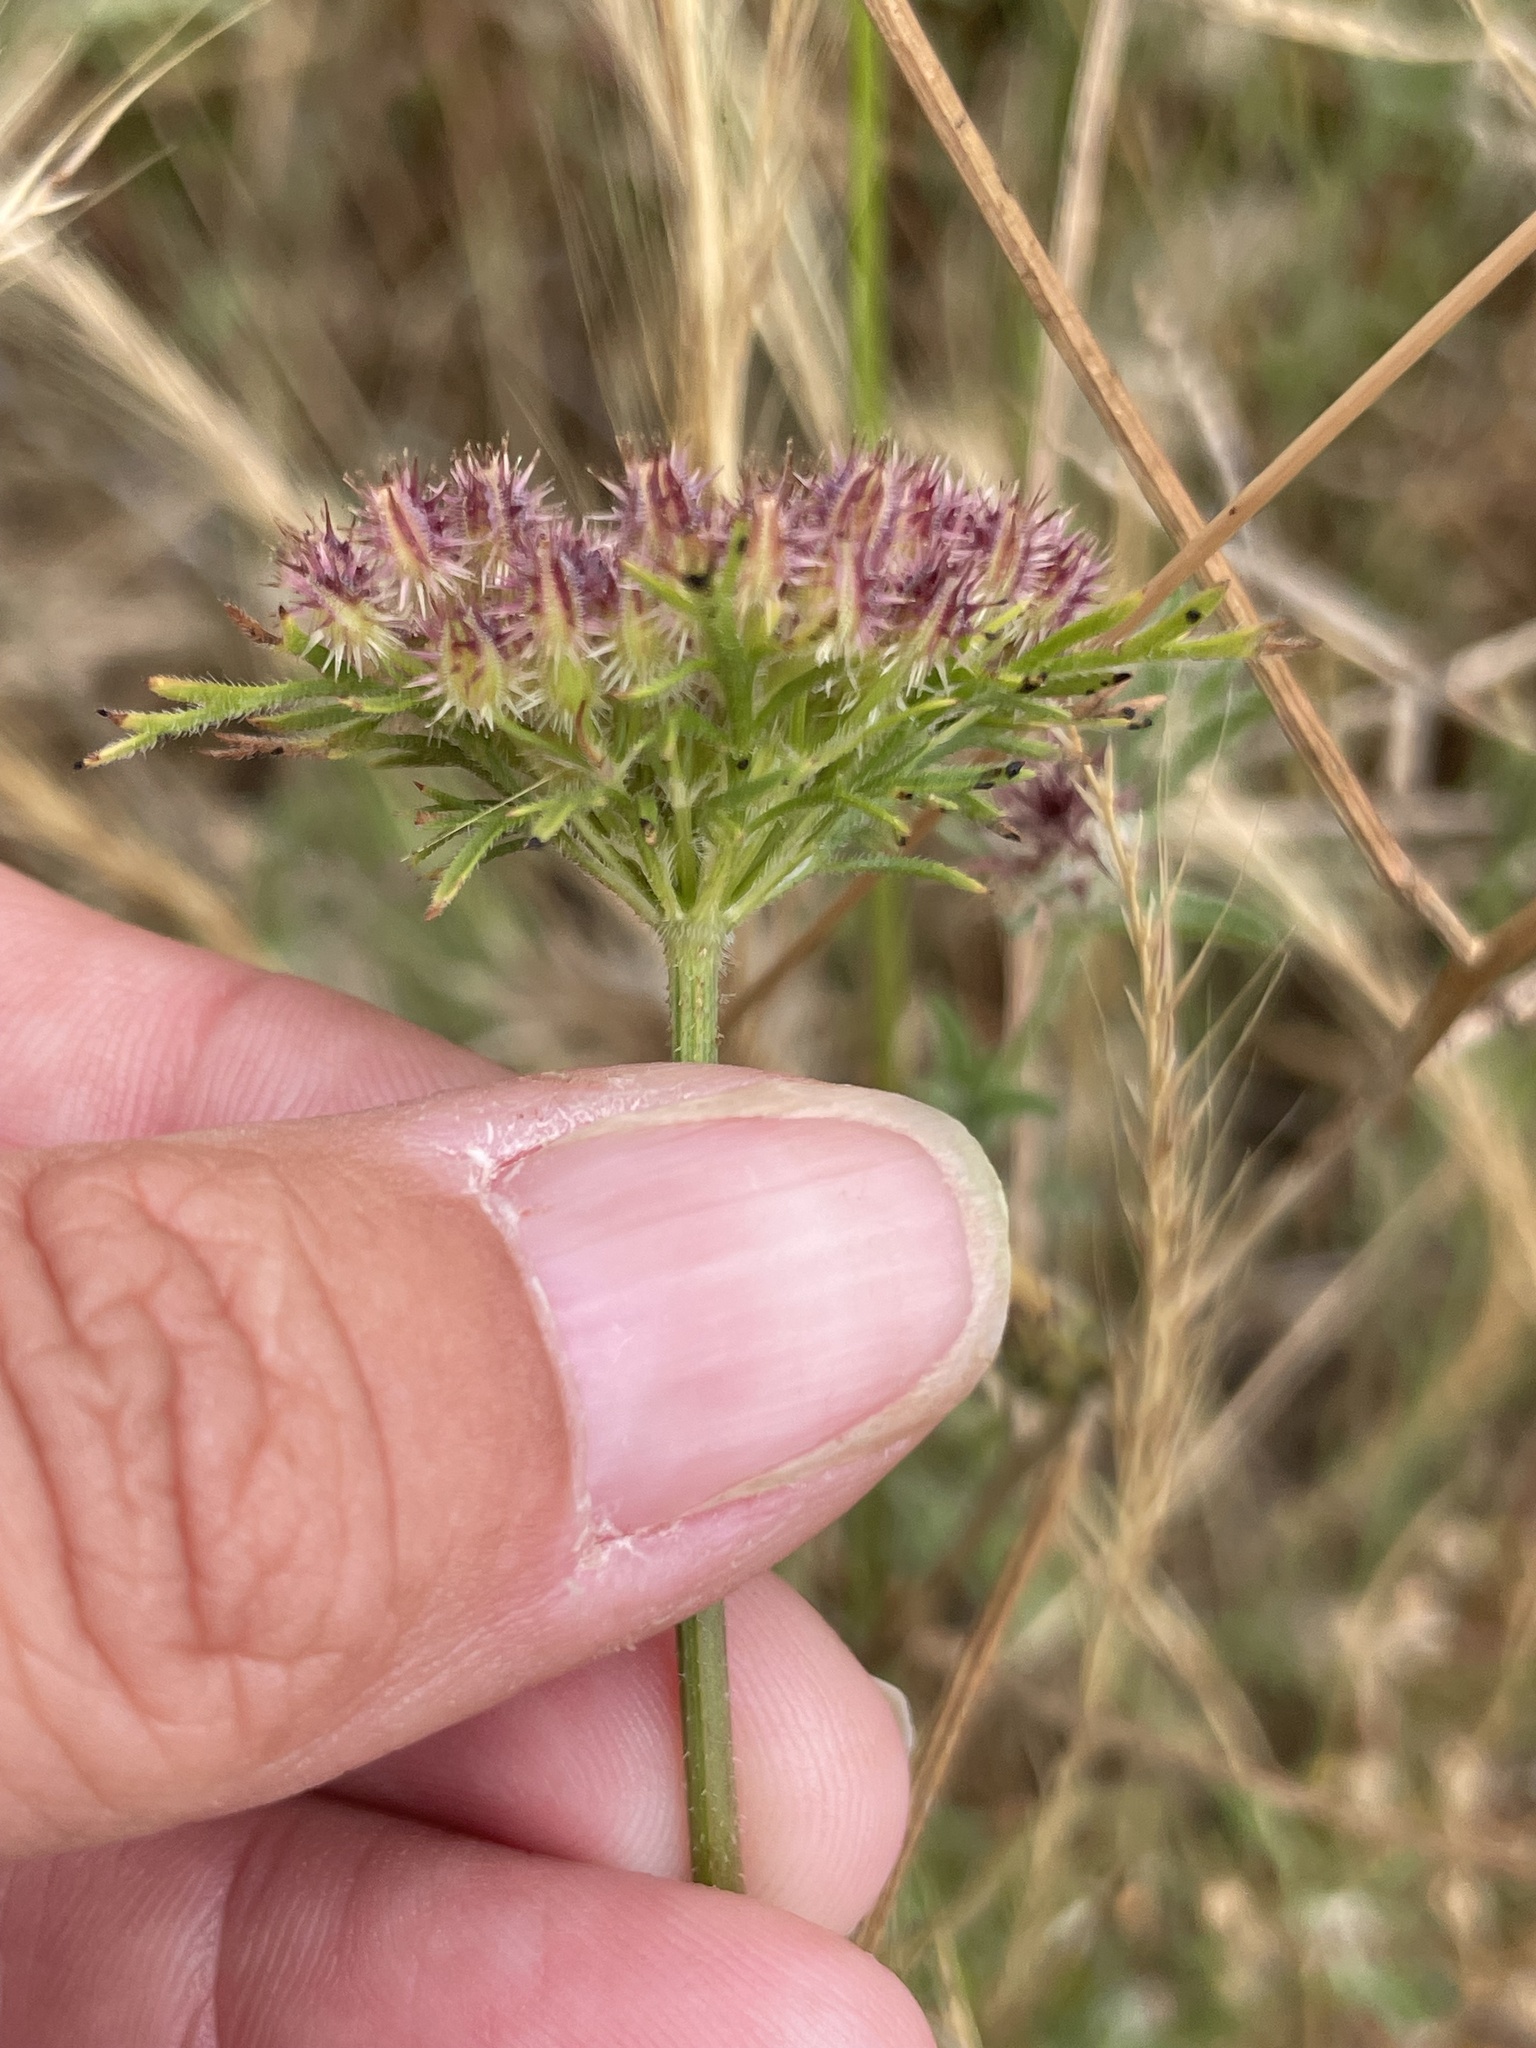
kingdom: Plantae
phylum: Tracheophyta
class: Magnoliopsida
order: Apiales
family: Apiaceae
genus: Daucus
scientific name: Daucus pusillus
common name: Southwest wild carrot
